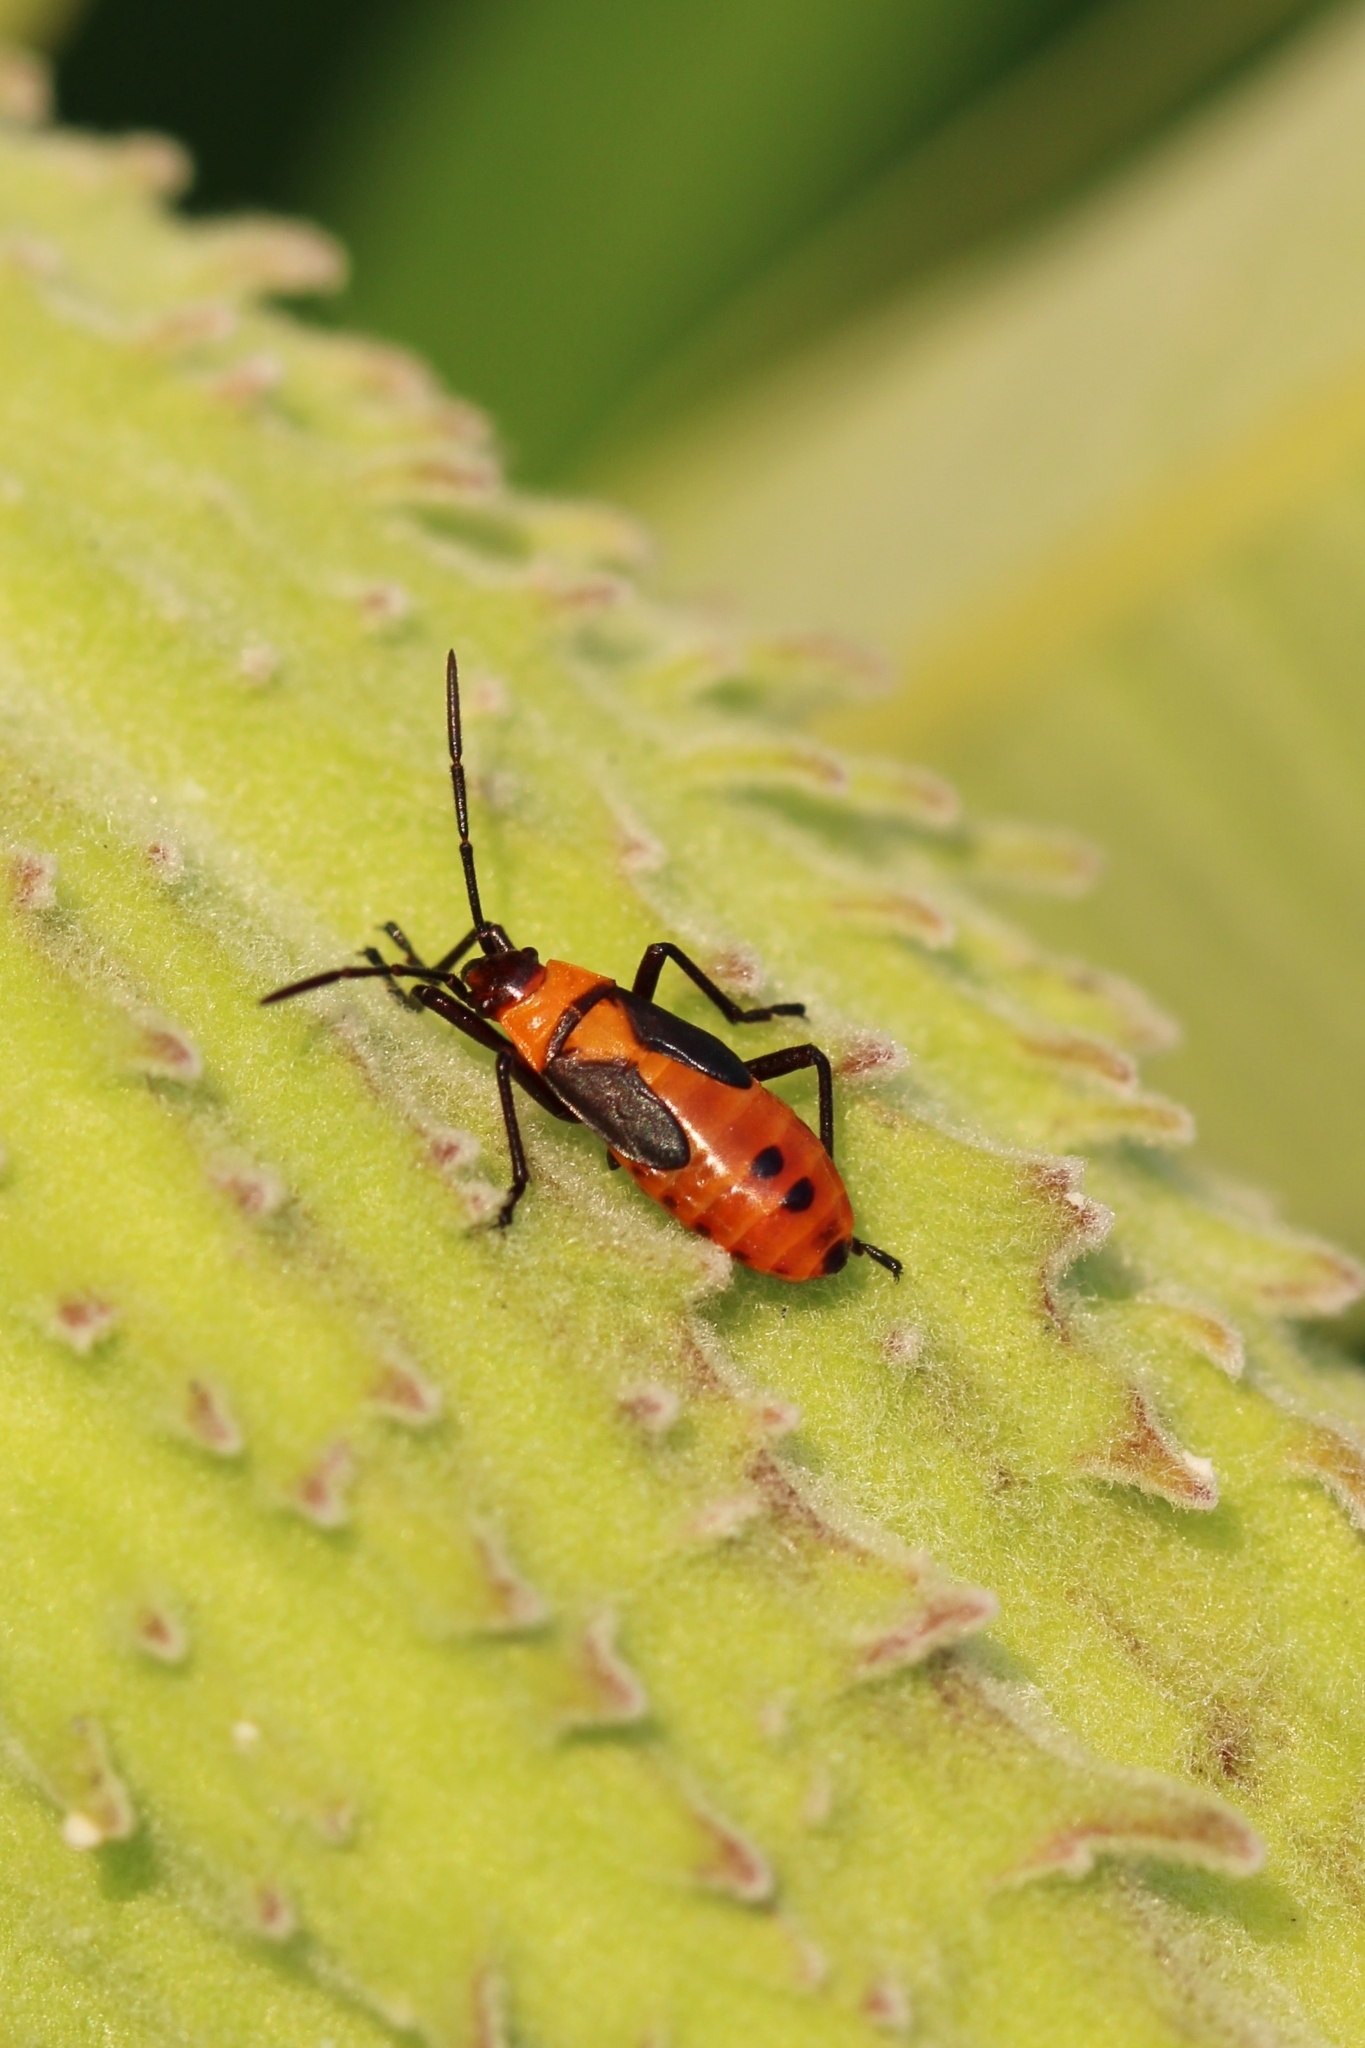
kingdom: Animalia
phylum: Arthropoda
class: Insecta
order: Hemiptera
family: Lygaeidae
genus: Oncopeltus
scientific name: Oncopeltus fasciatus
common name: Large milkweed bug
